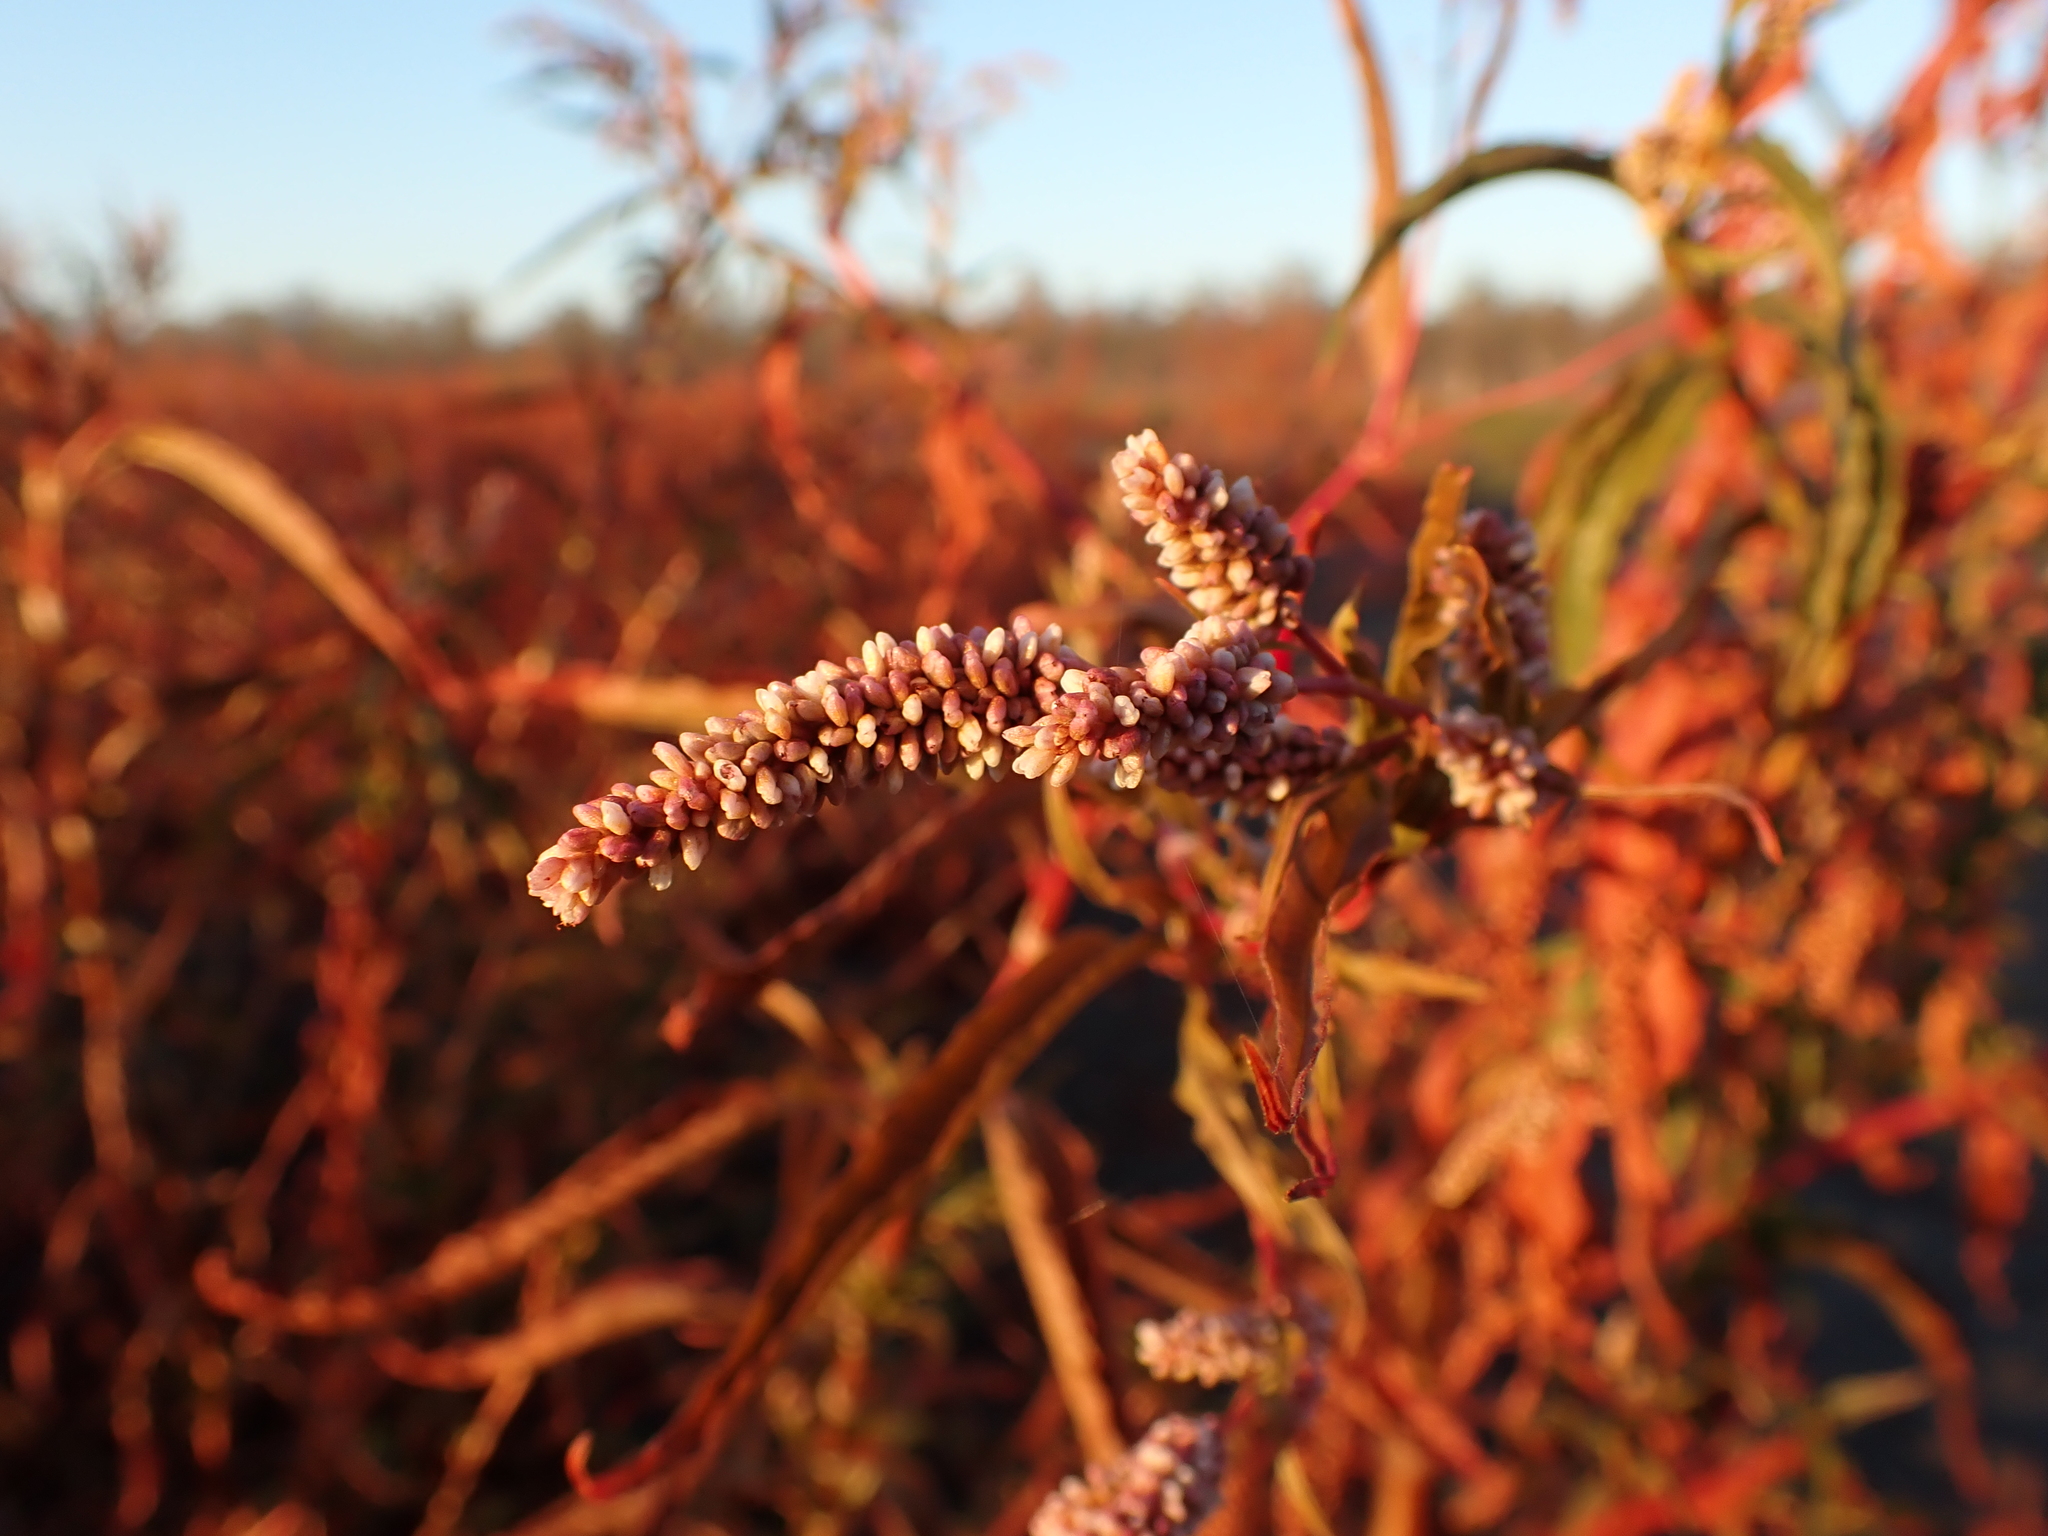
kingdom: Plantae
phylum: Tracheophyta
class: Magnoliopsida
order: Caryophyllales
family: Polygonaceae
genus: Persicaria
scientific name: Persicaria lapathifolia
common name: Curlytop knotweed
